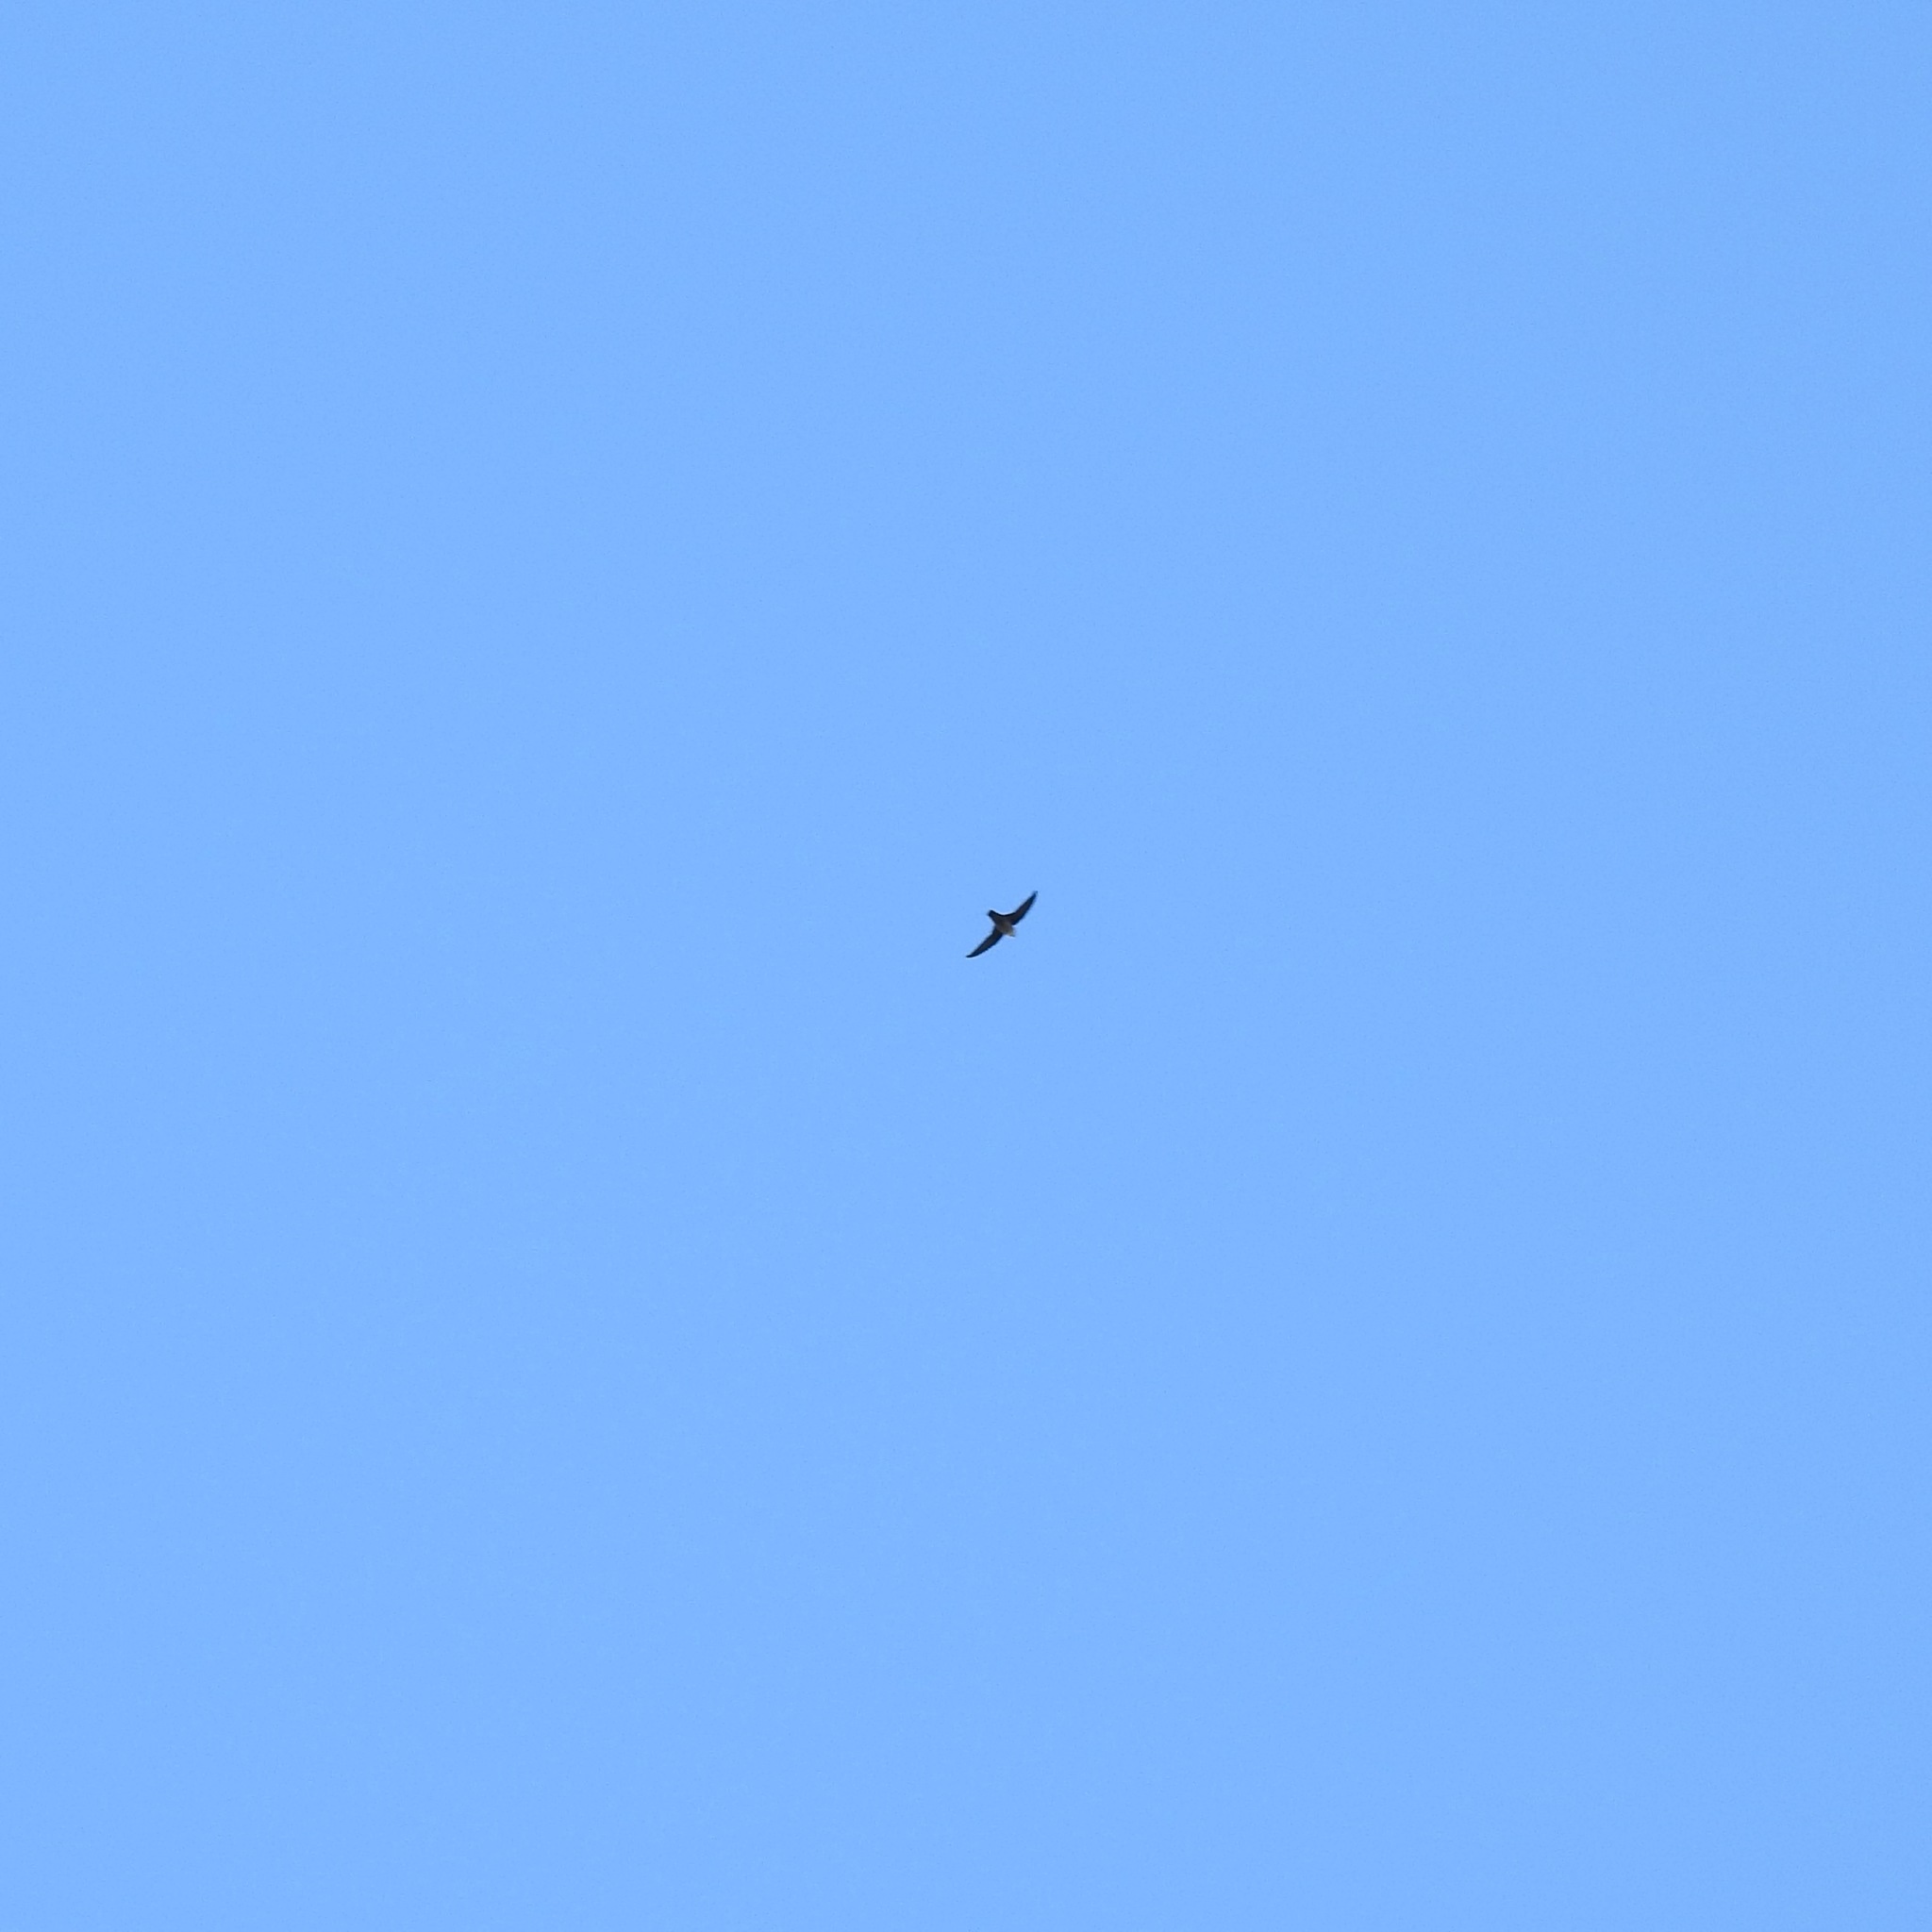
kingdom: Animalia
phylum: Chordata
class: Aves
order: Apodiformes
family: Apodidae
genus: Chaetura
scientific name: Chaetura vauxi
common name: Vaux's swift
